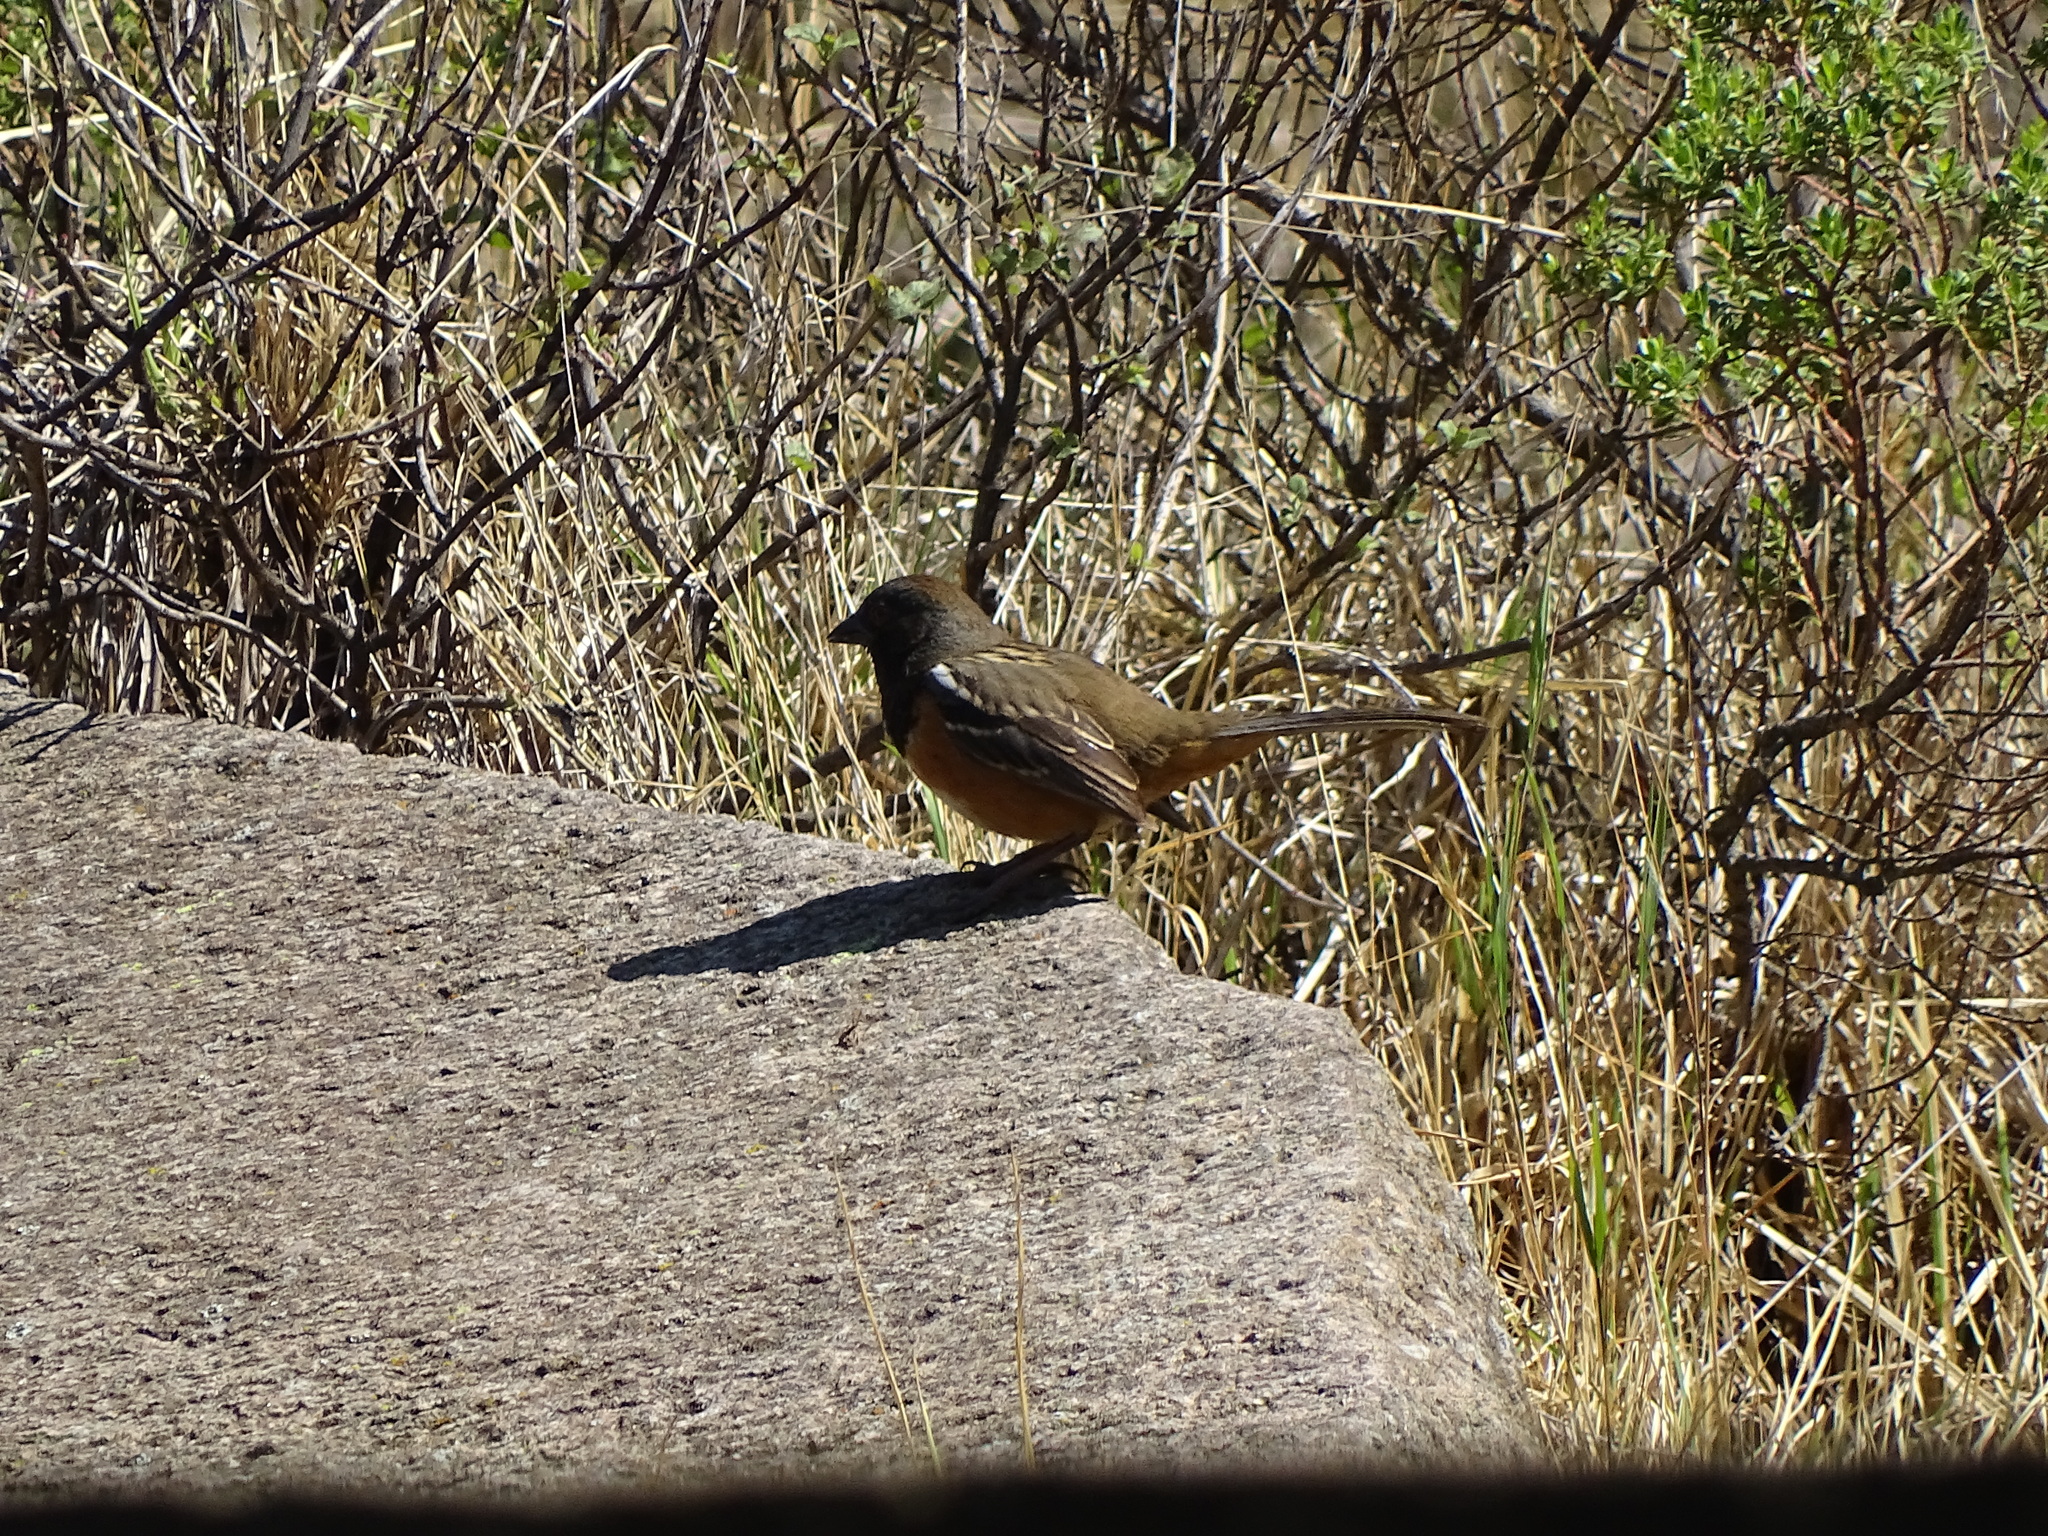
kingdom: Animalia
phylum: Chordata
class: Aves
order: Passeriformes
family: Passerellidae
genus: Pipilo
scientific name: Pipilo maculatus
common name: Spotted towhee
